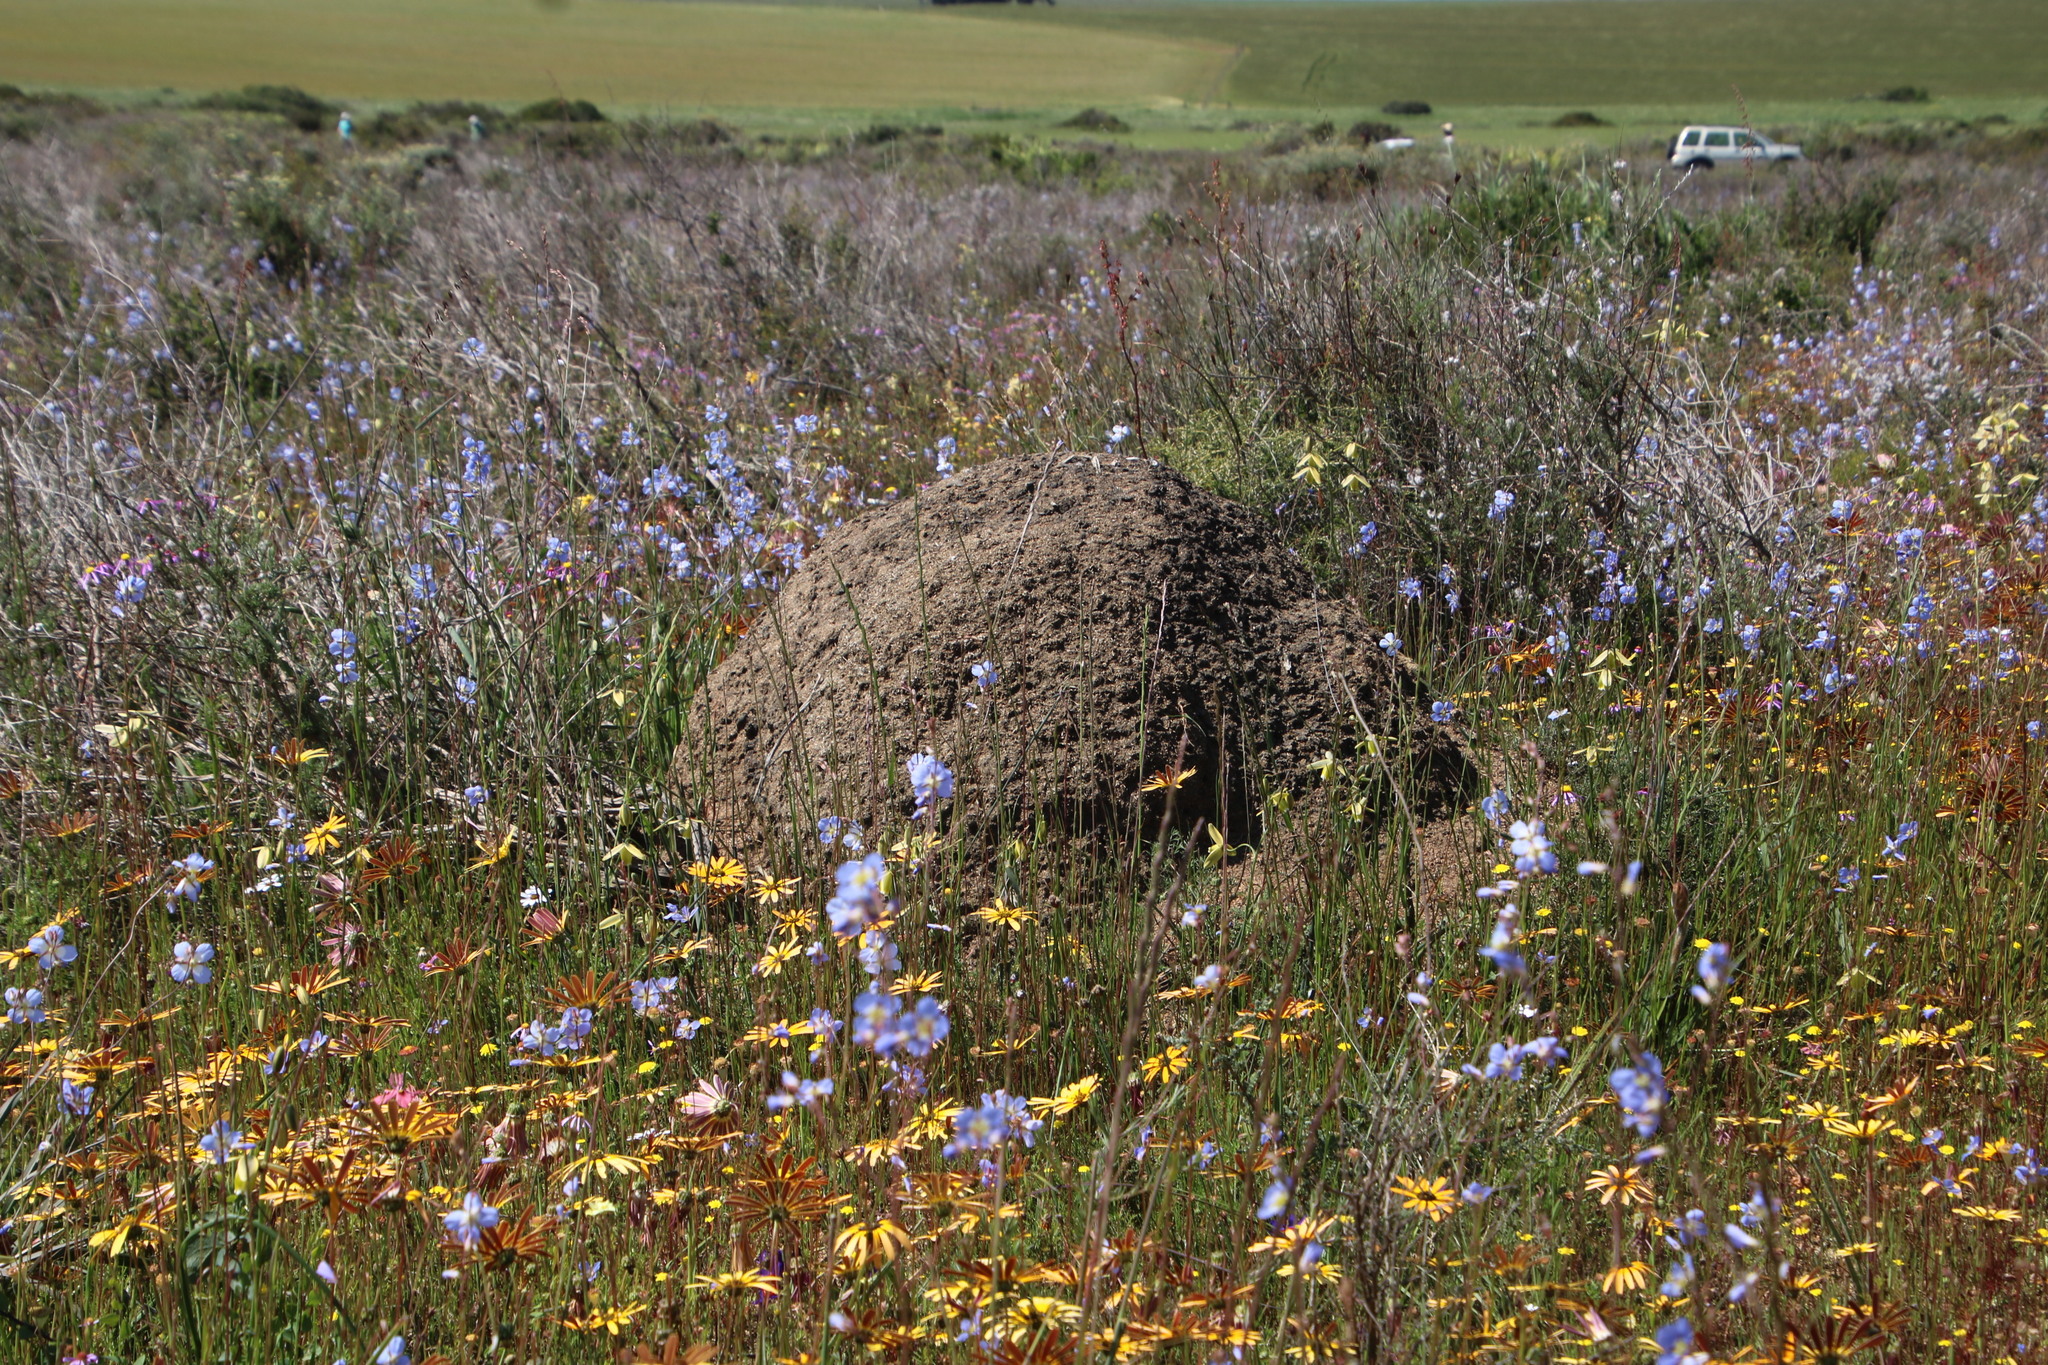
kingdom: Animalia
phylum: Arthropoda
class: Insecta
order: Blattodea
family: Termitidae
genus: Amitermes
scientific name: Amitermes hastatus
